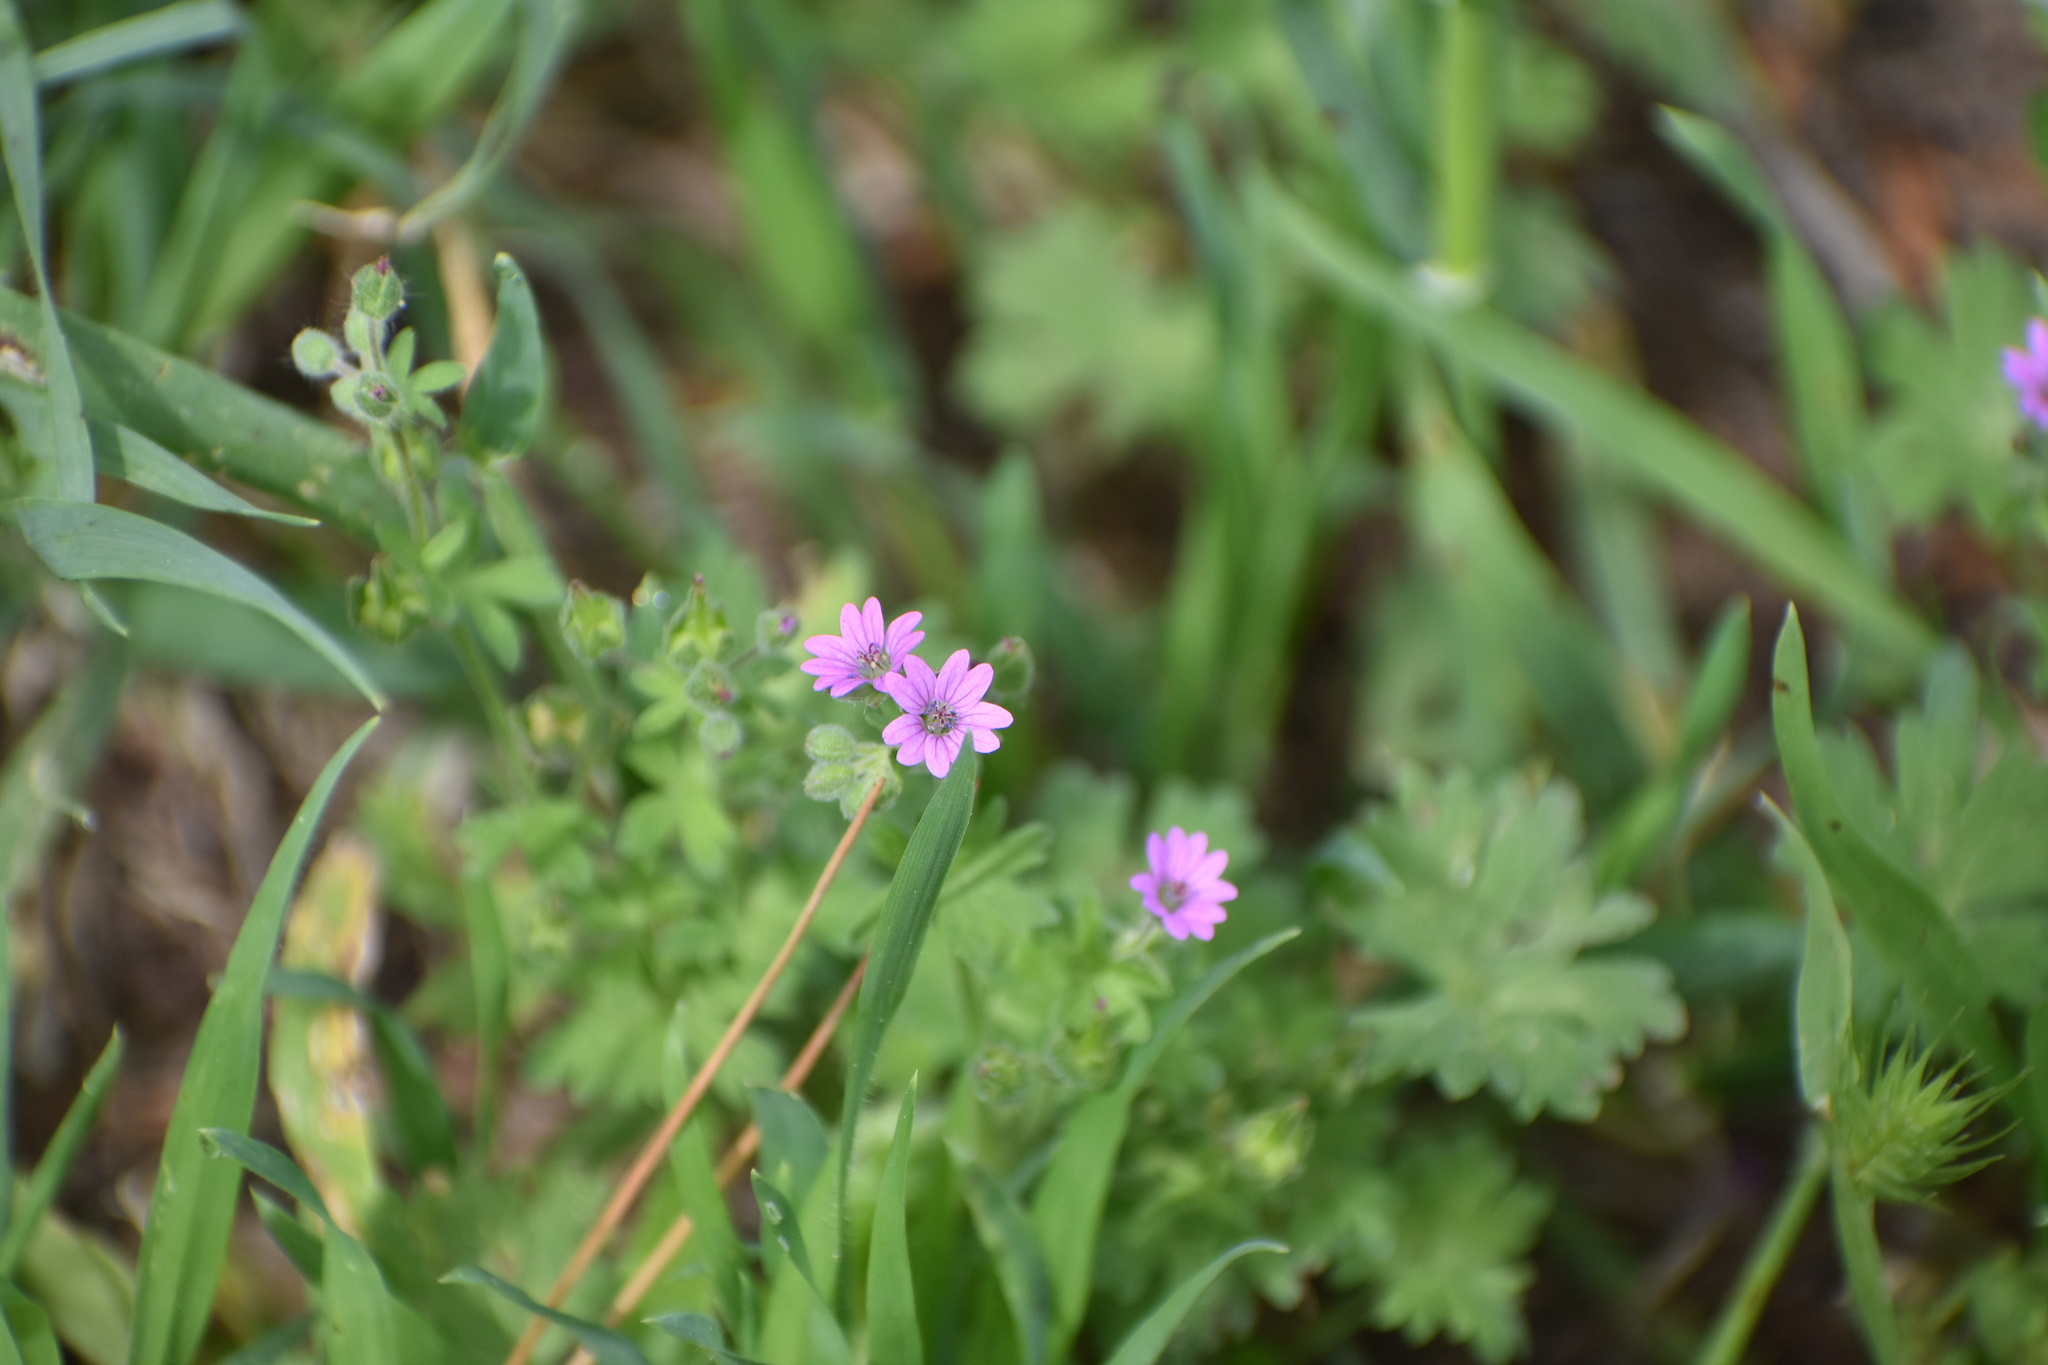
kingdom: Plantae
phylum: Tracheophyta
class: Magnoliopsida
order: Geraniales
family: Geraniaceae
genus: Geranium
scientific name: Geranium molle
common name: Dove's-foot crane's-bill
